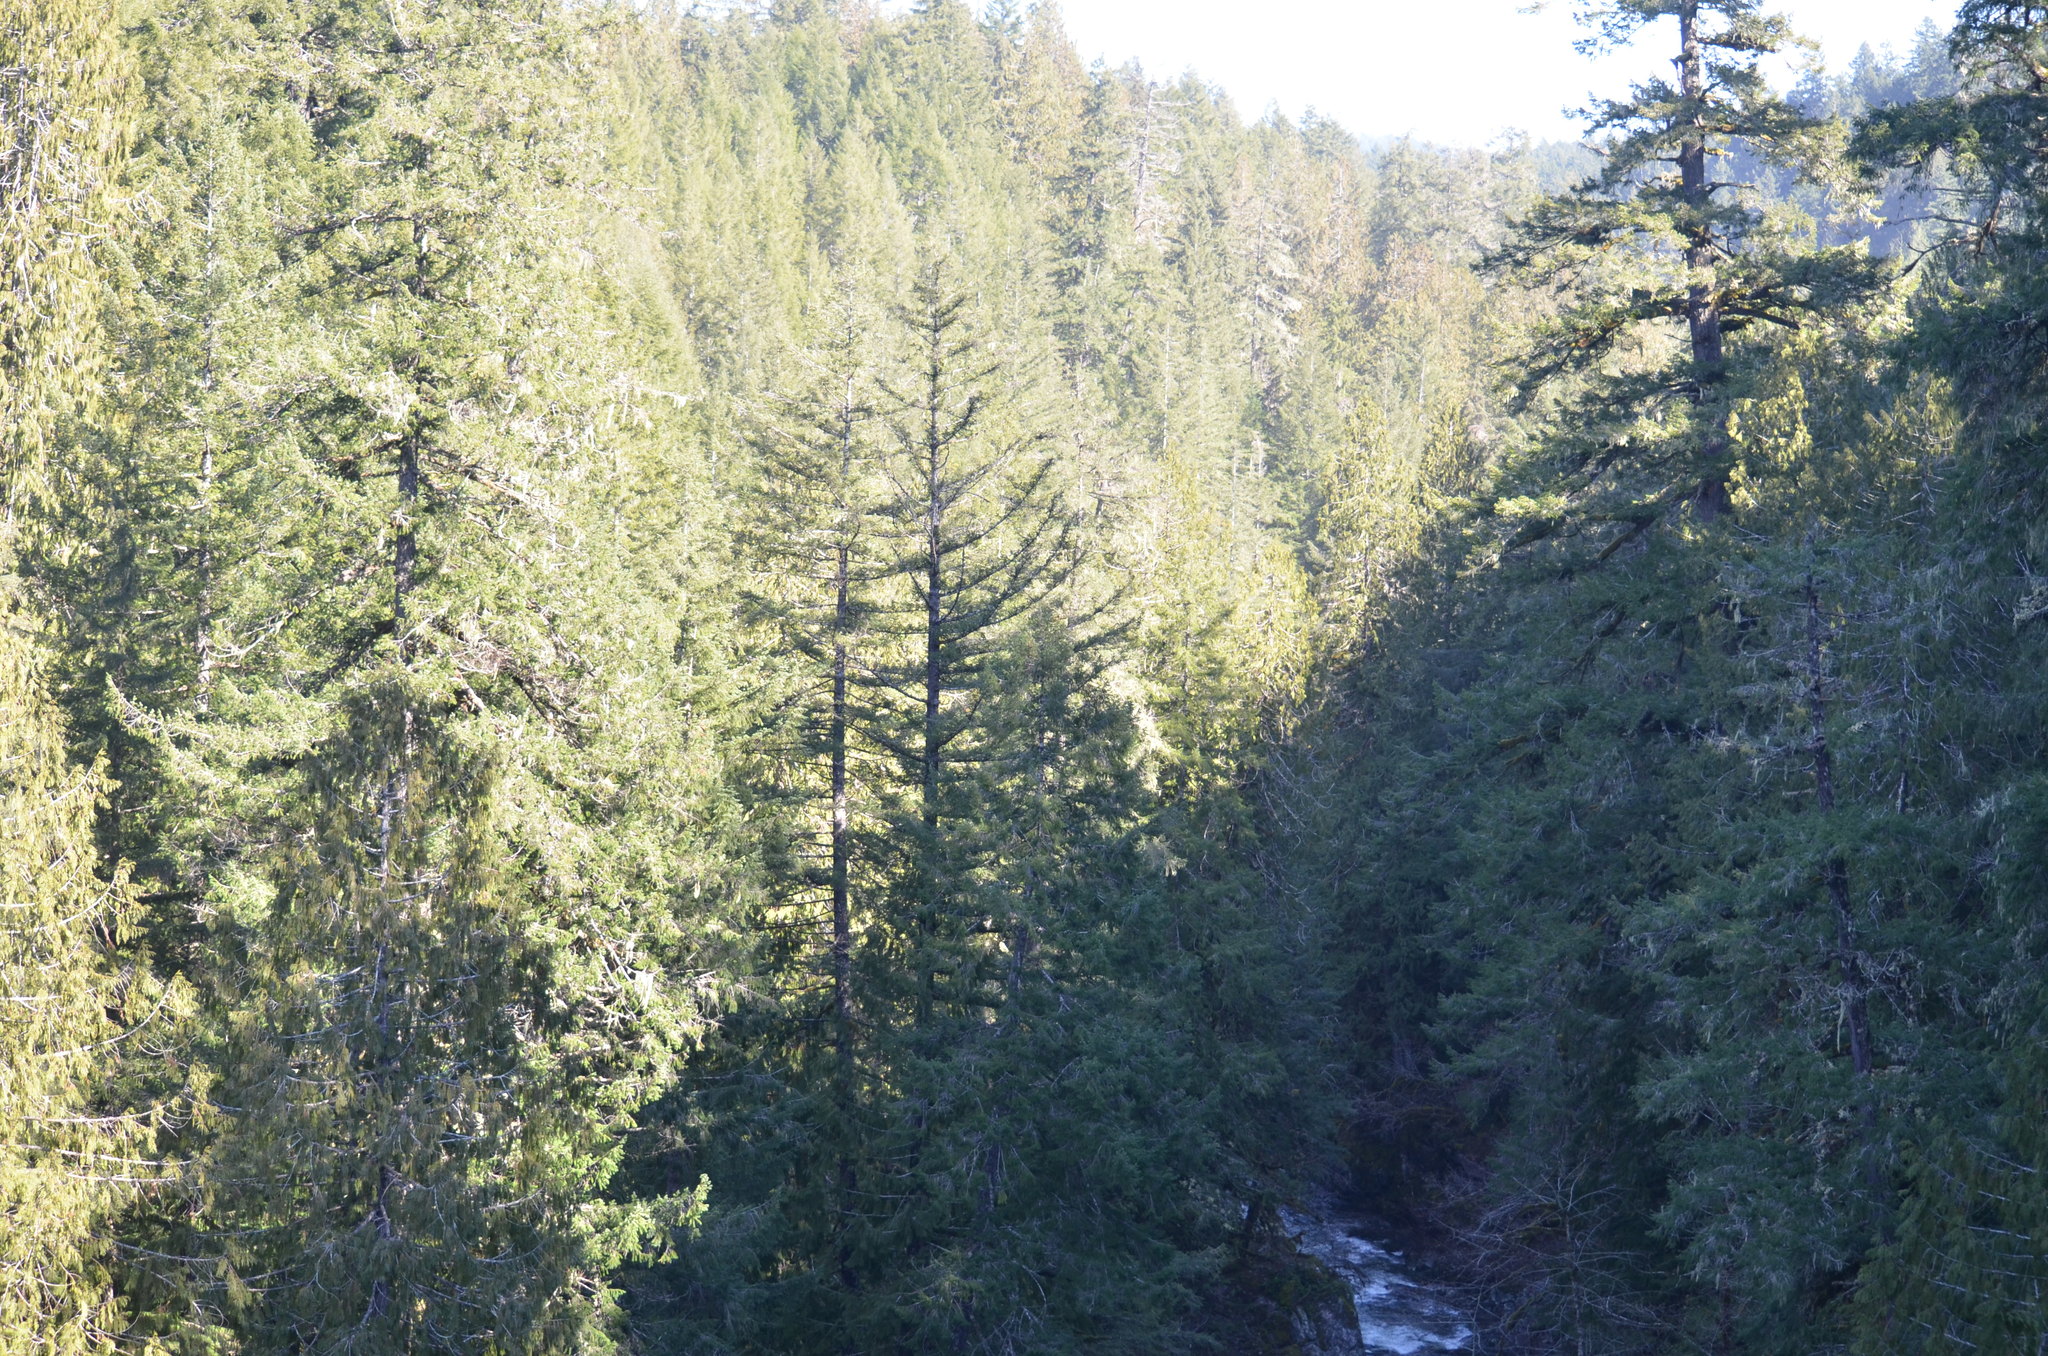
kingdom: Plantae
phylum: Tracheophyta
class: Pinopsida
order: Pinales
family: Pinaceae
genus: Pseudotsuga
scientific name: Pseudotsuga menziesii
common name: Douglas fir
